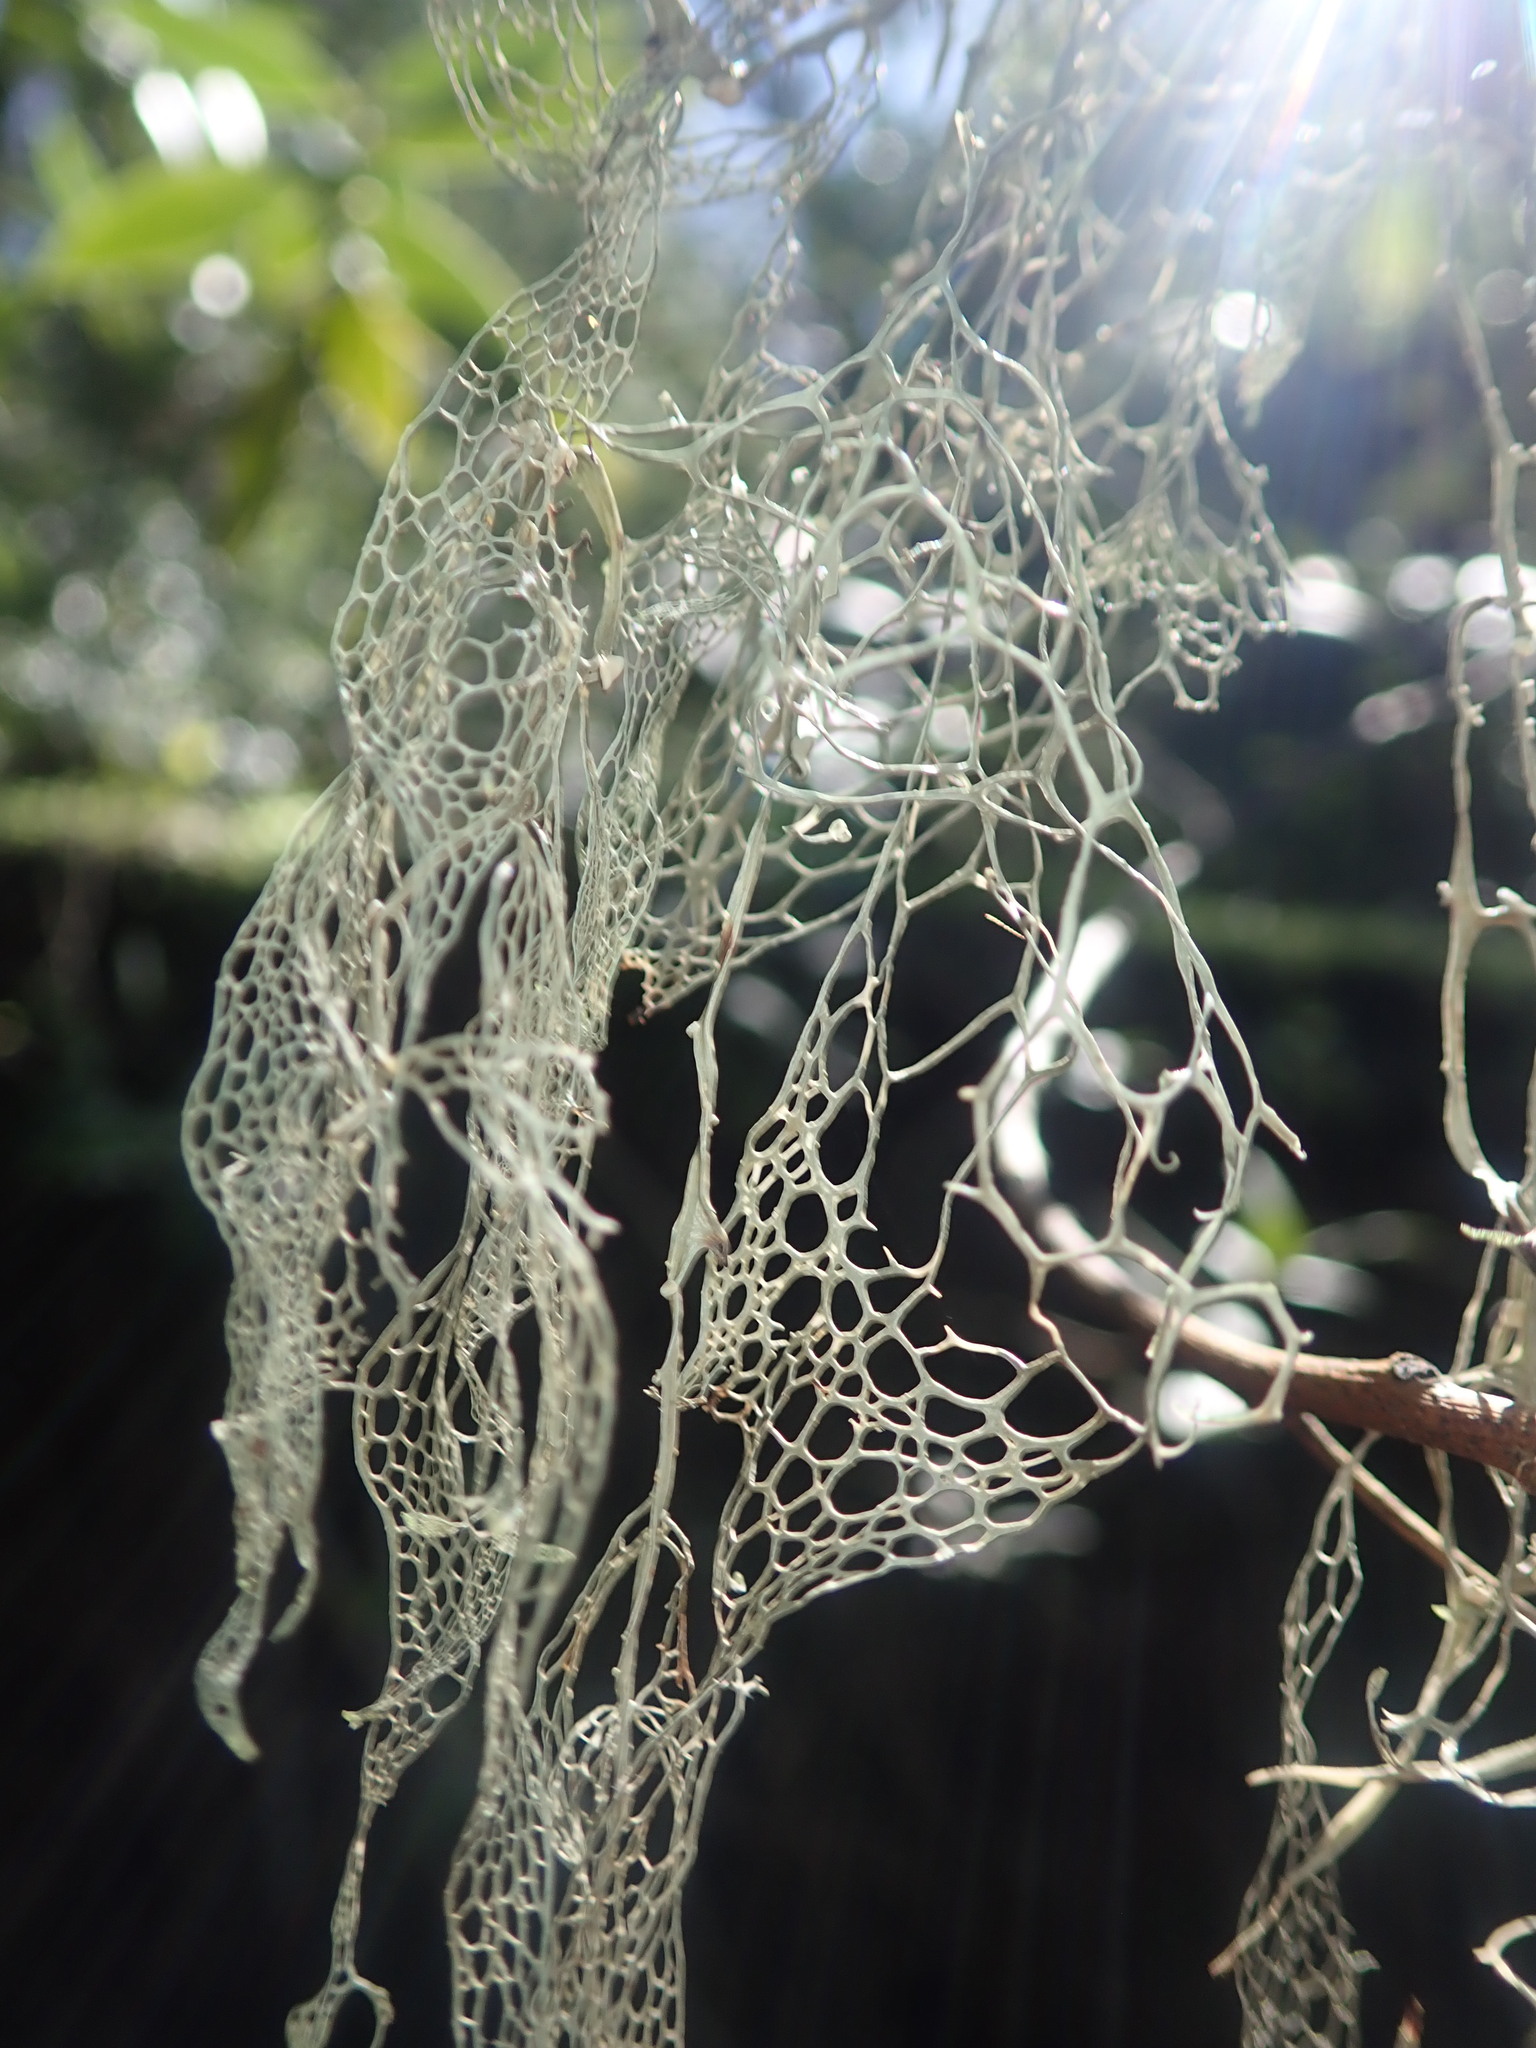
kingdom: Fungi
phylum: Ascomycota
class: Lecanoromycetes
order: Lecanorales
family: Ramalinaceae
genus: Ramalina
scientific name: Ramalina menziesii
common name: Lace lichen
